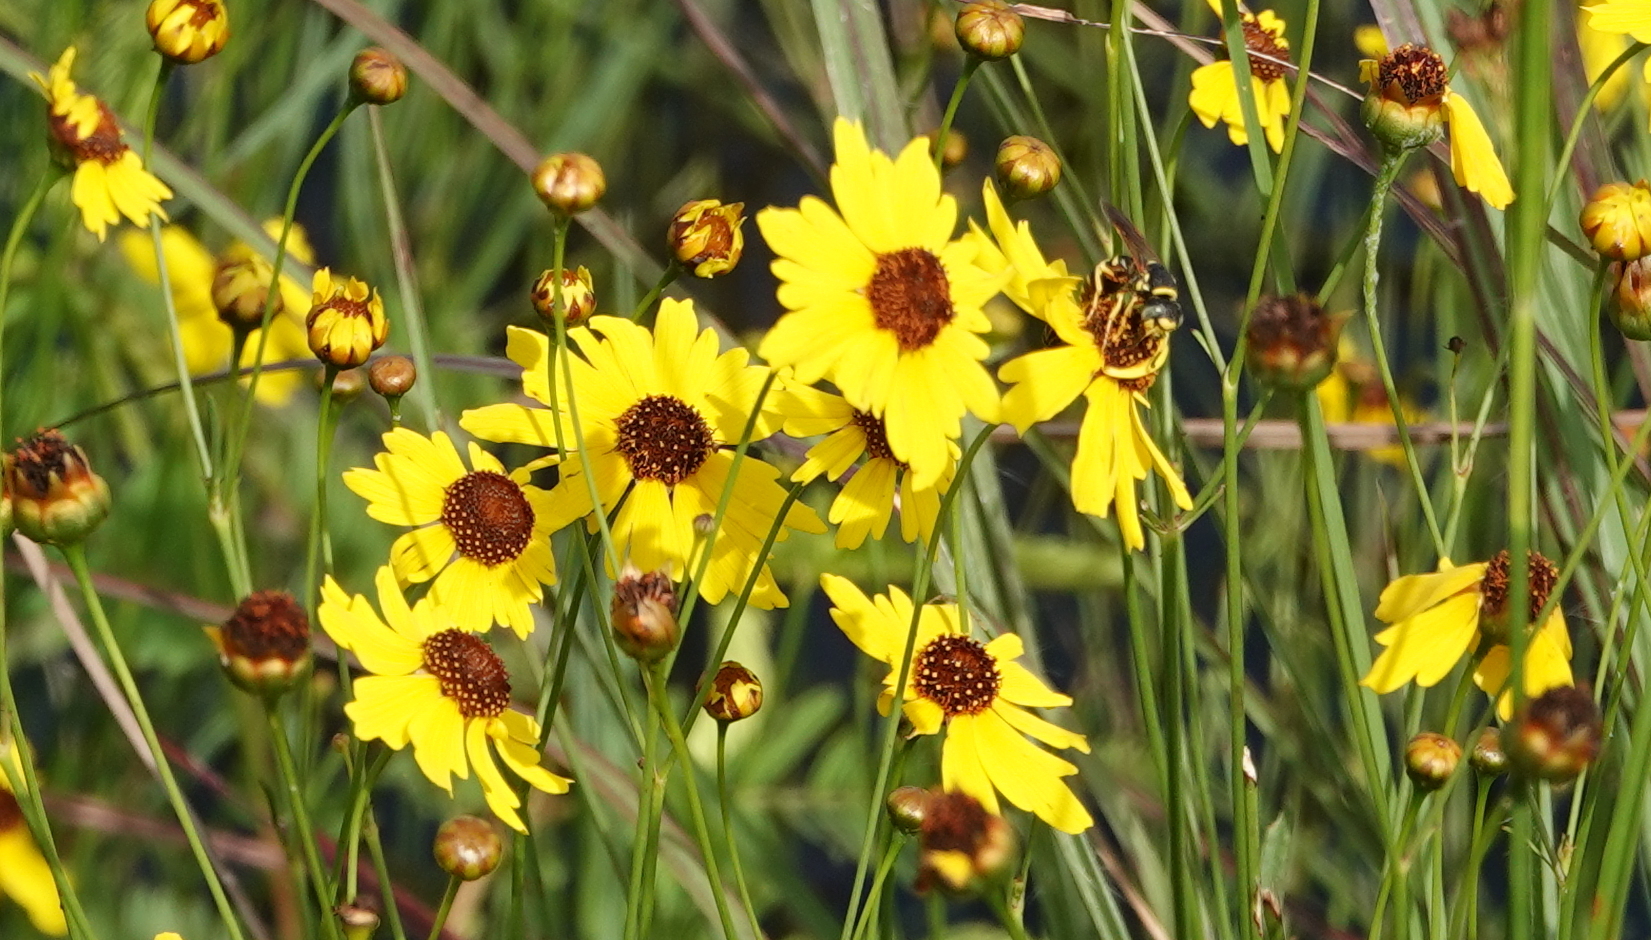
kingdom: Plantae
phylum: Tracheophyta
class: Magnoliopsida
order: Asterales
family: Asteraceae
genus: Coreopsis
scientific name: Coreopsis leavenworthii
